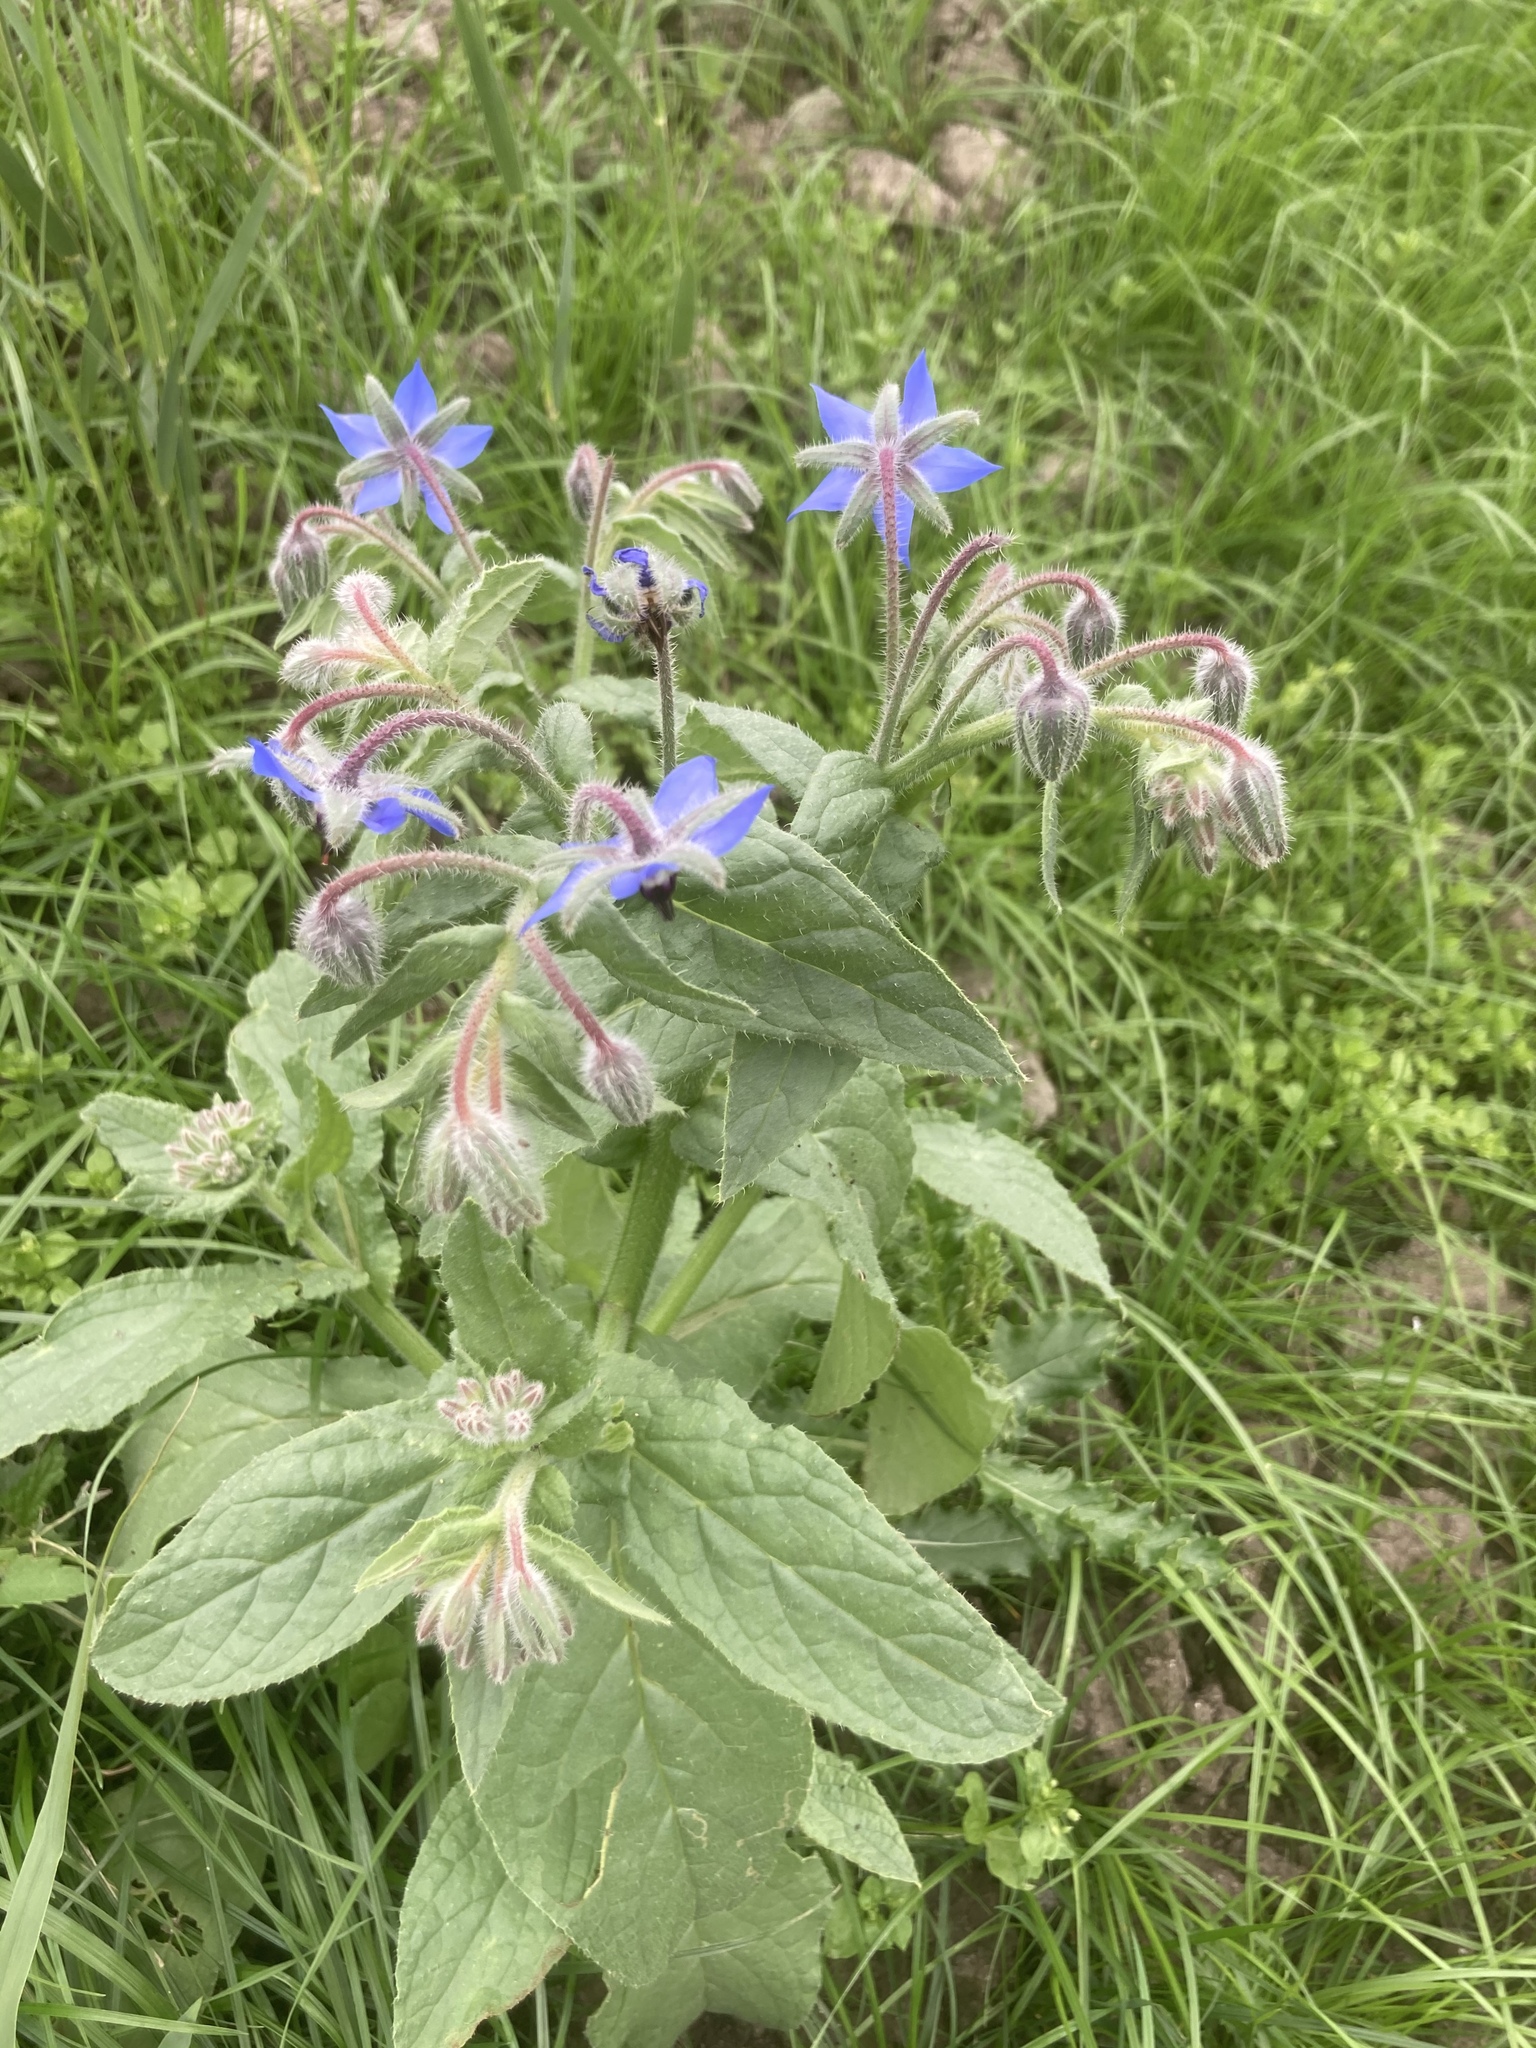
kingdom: Plantae
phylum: Tracheophyta
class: Magnoliopsida
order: Boraginales
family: Boraginaceae
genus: Borago
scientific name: Borago officinalis
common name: Borage
